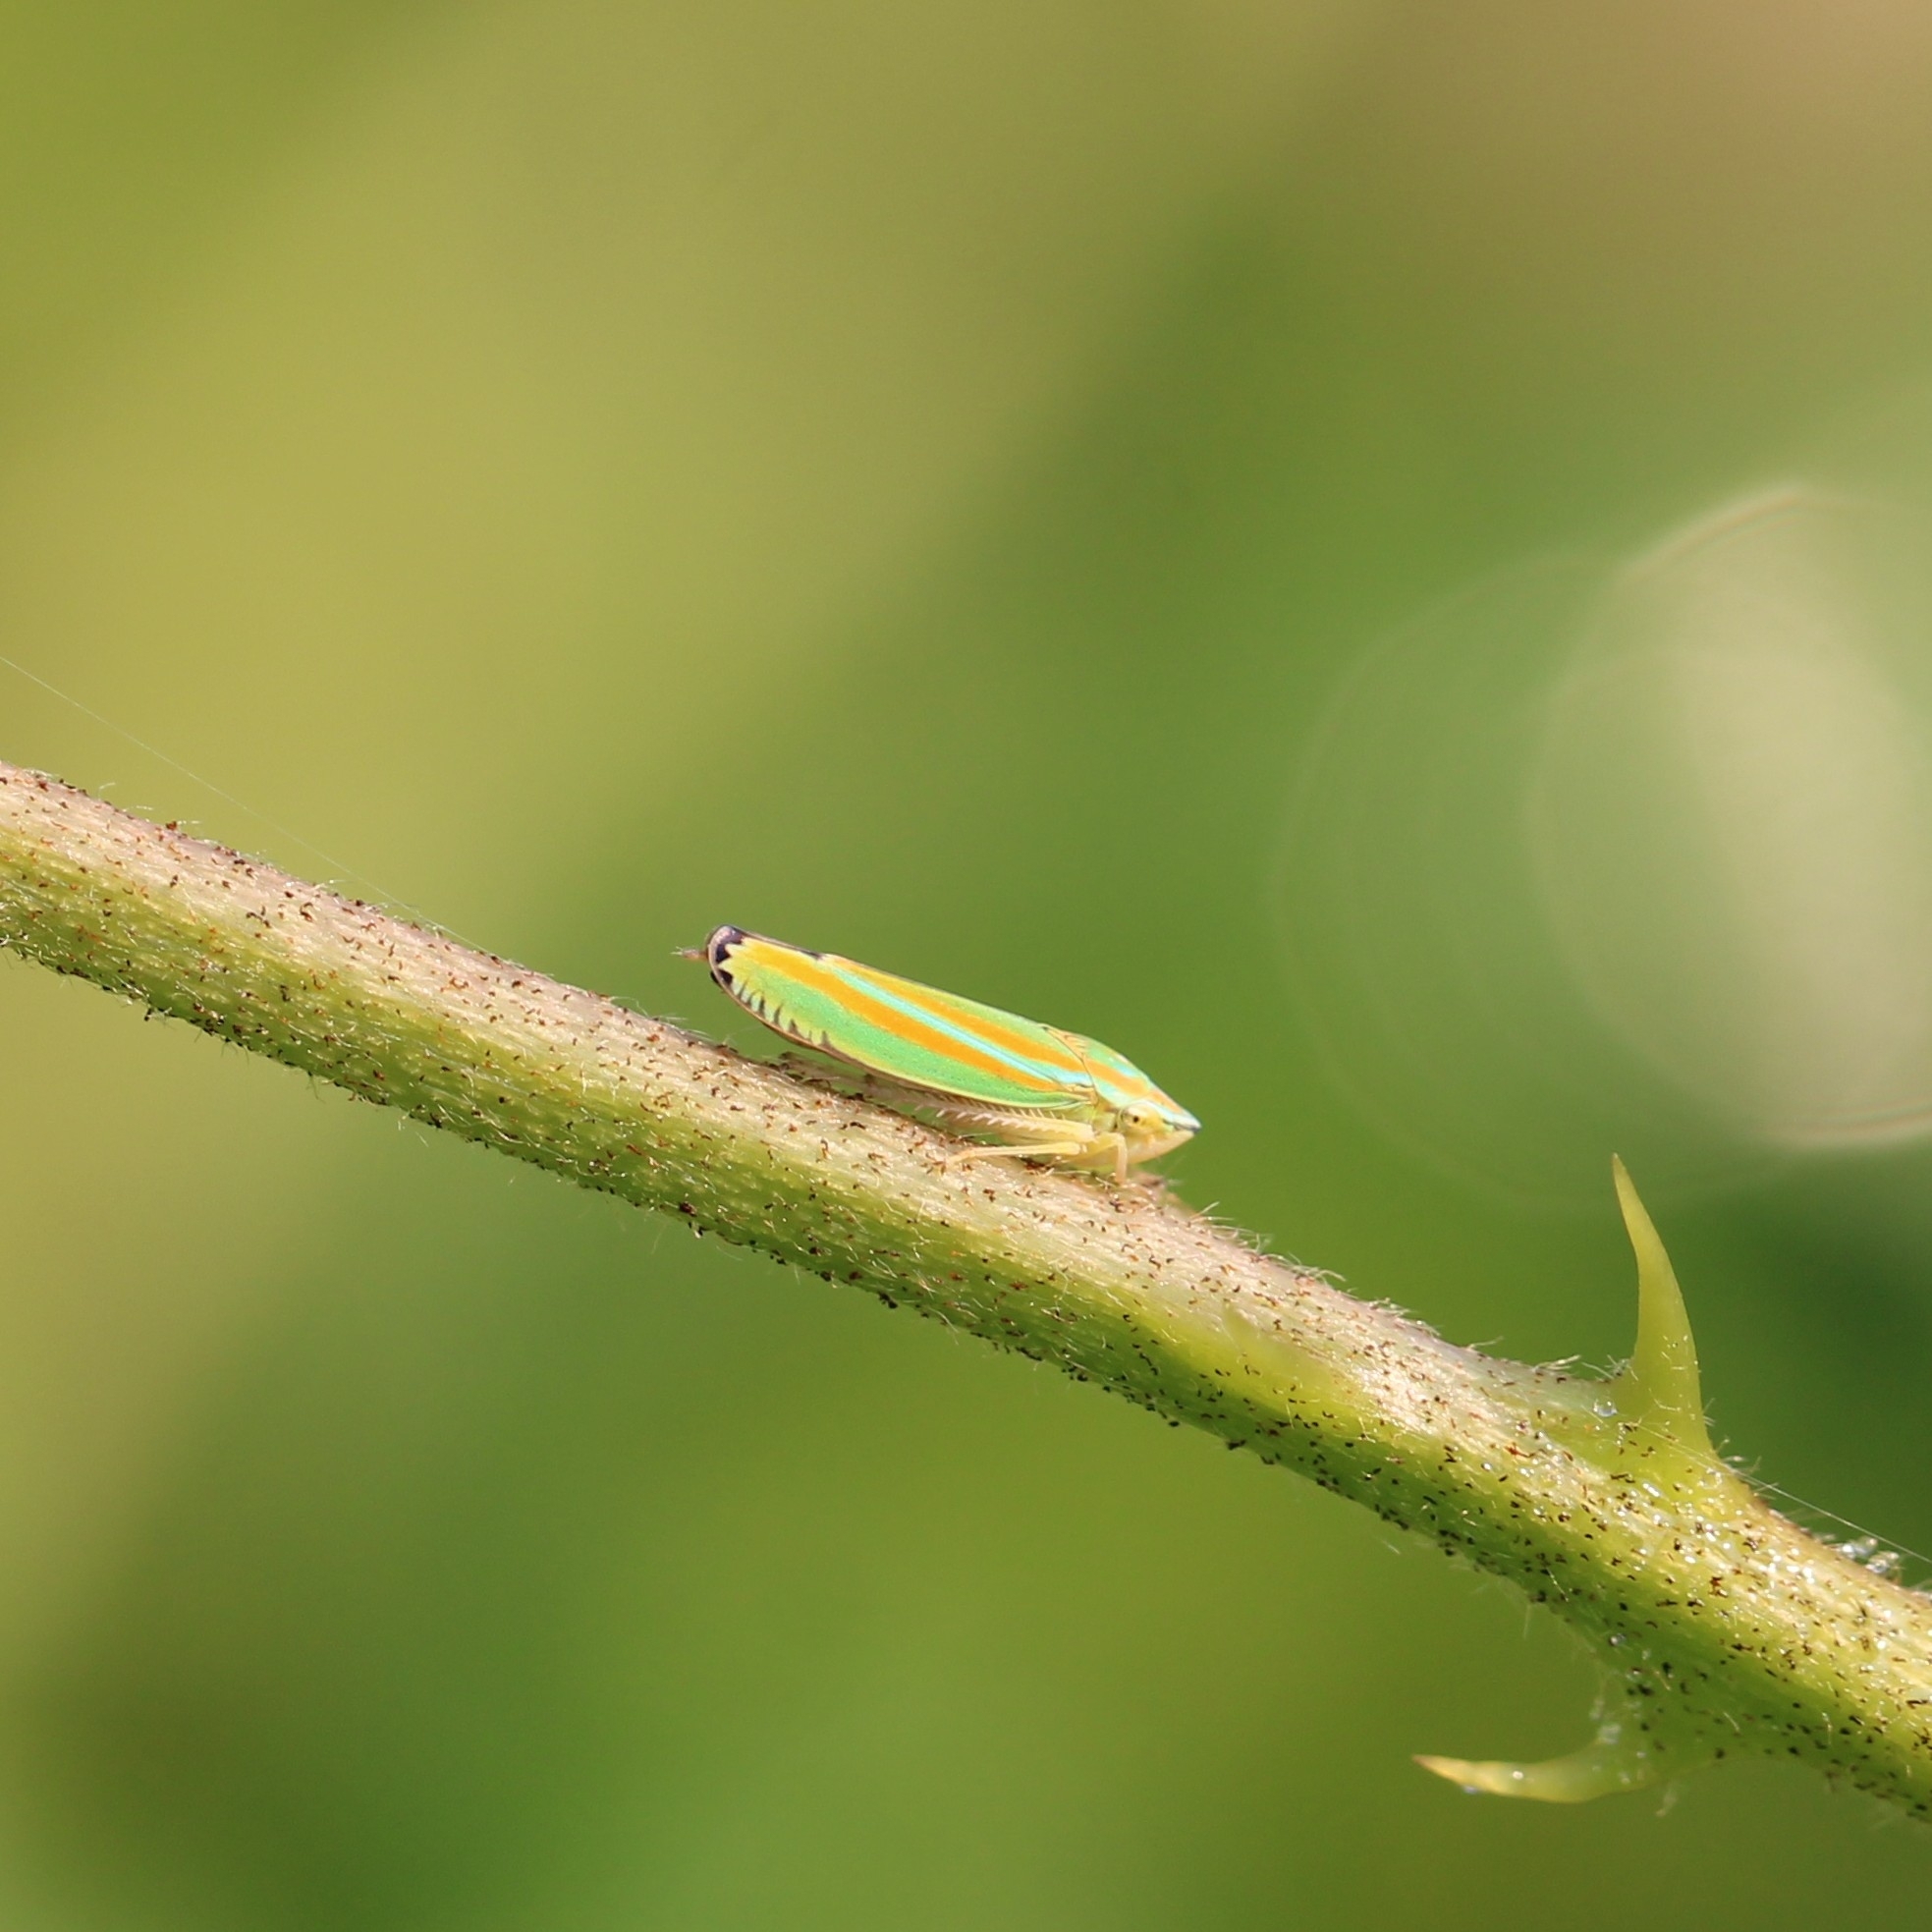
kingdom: Animalia
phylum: Arthropoda
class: Insecta
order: Hemiptera
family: Cicadellidae
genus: Graphocephala
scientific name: Graphocephala versuta
